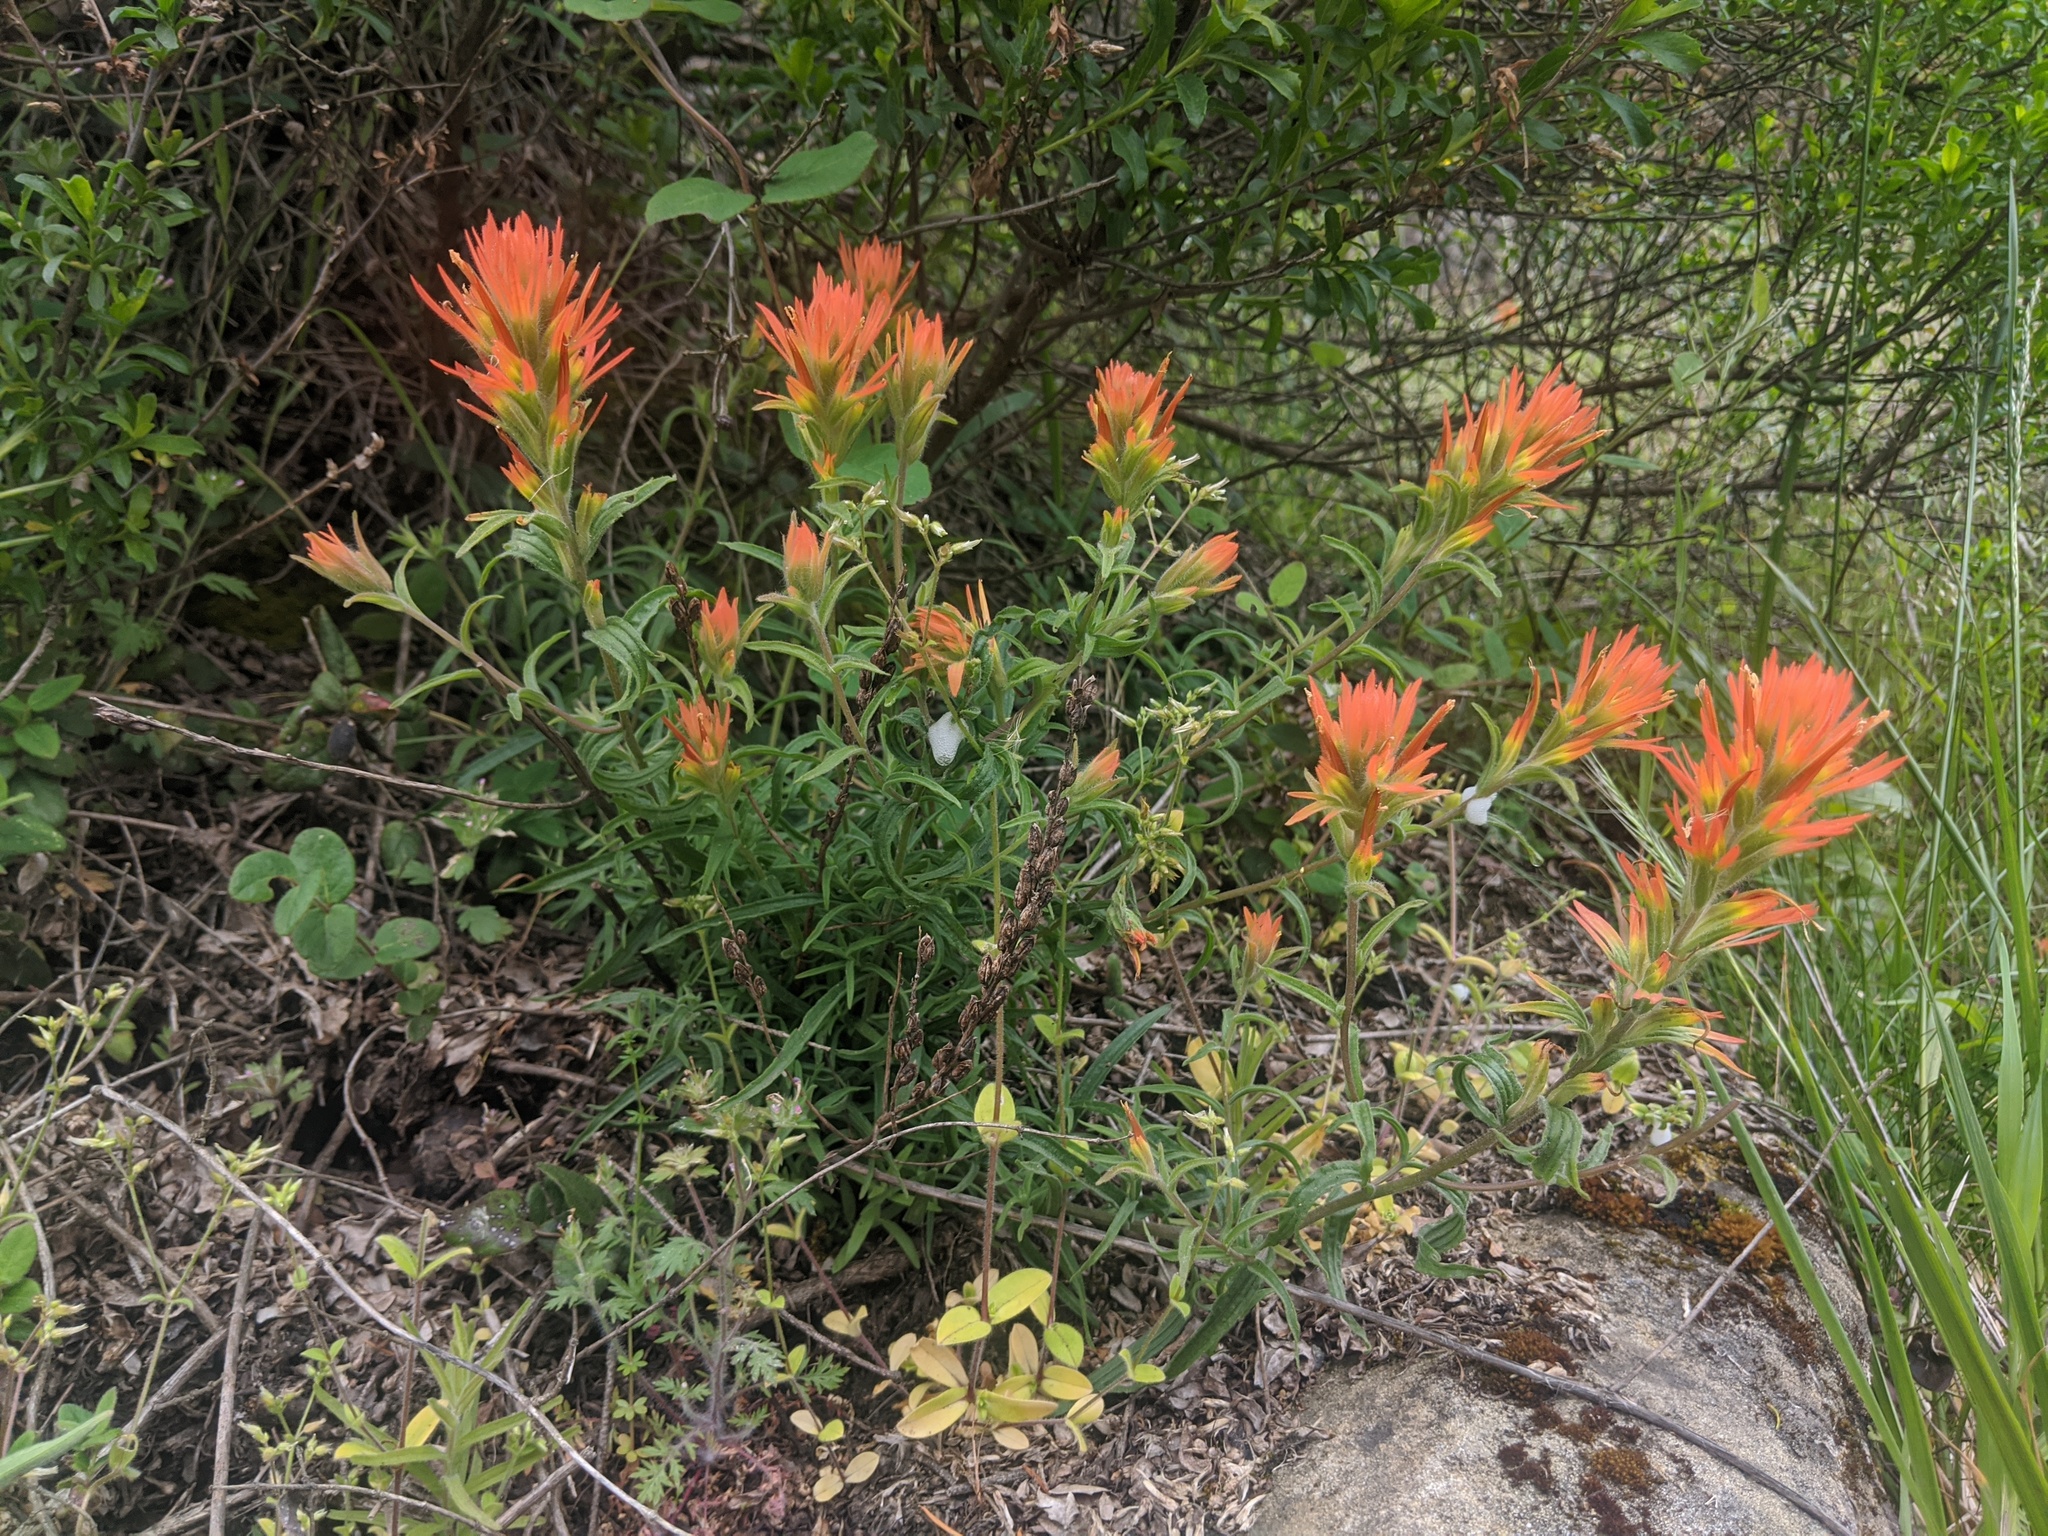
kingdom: Plantae
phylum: Tracheophyta
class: Magnoliopsida
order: Lamiales
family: Orobanchaceae
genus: Castilleja
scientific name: Castilleja pruinosa
